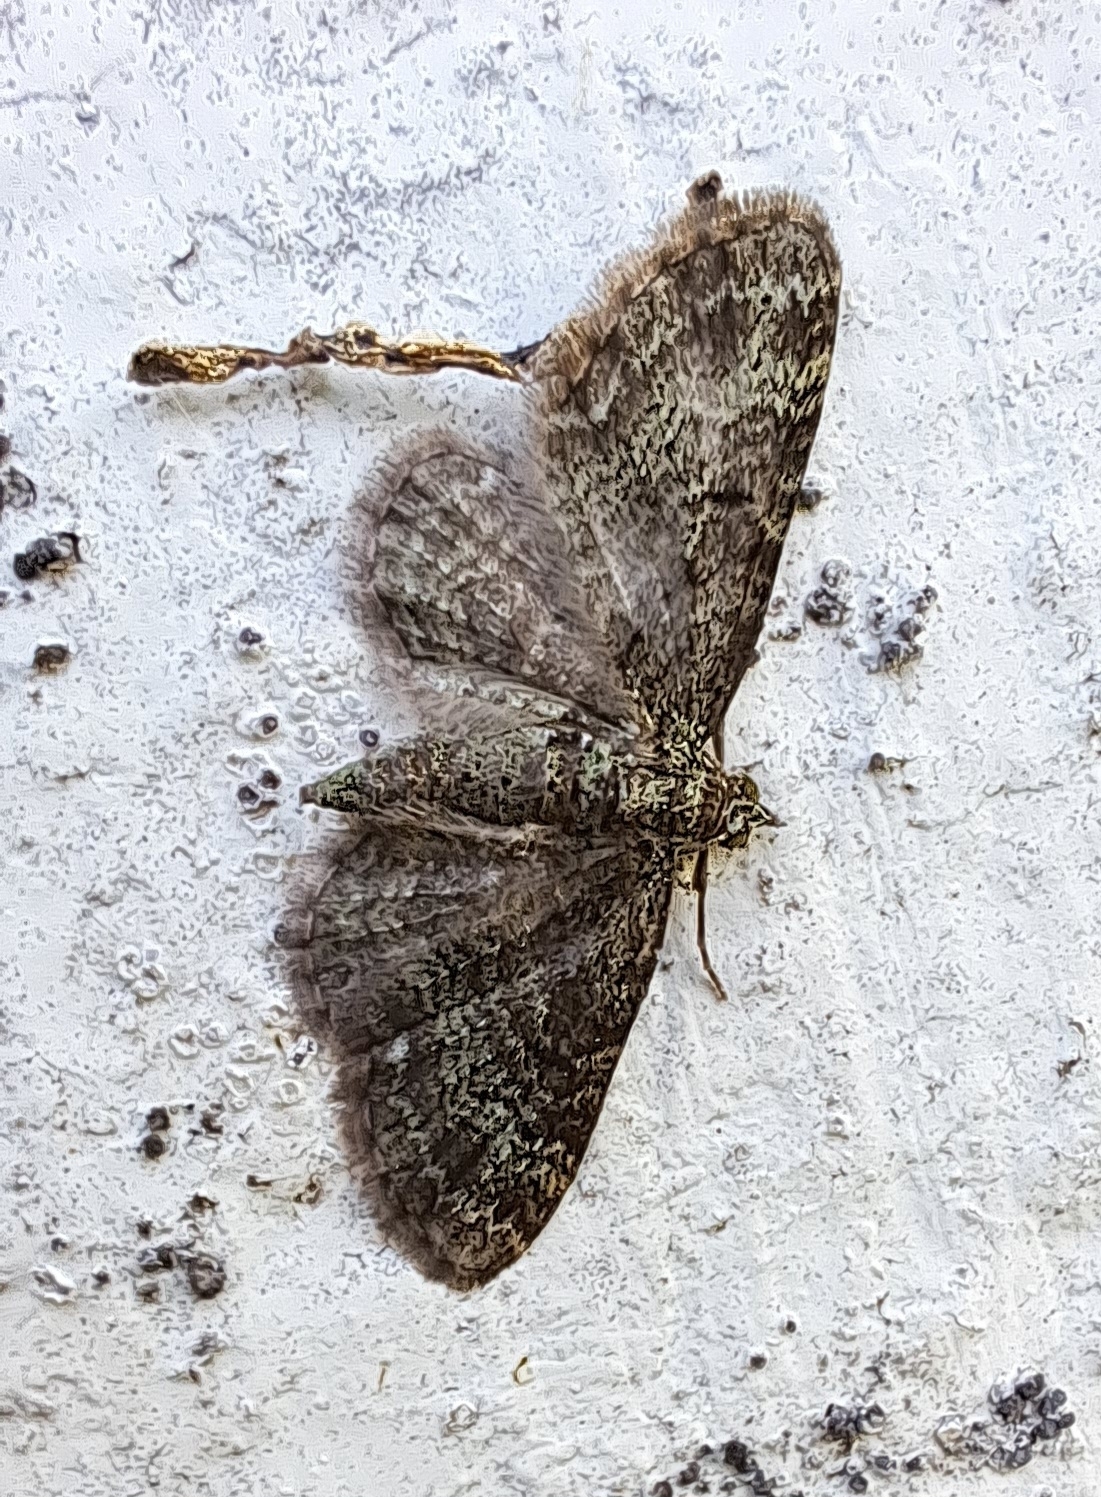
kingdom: Animalia
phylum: Arthropoda
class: Insecta
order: Lepidoptera
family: Geometridae
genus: Pasiphila
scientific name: Pasiphila rectangulata
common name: Green pug
